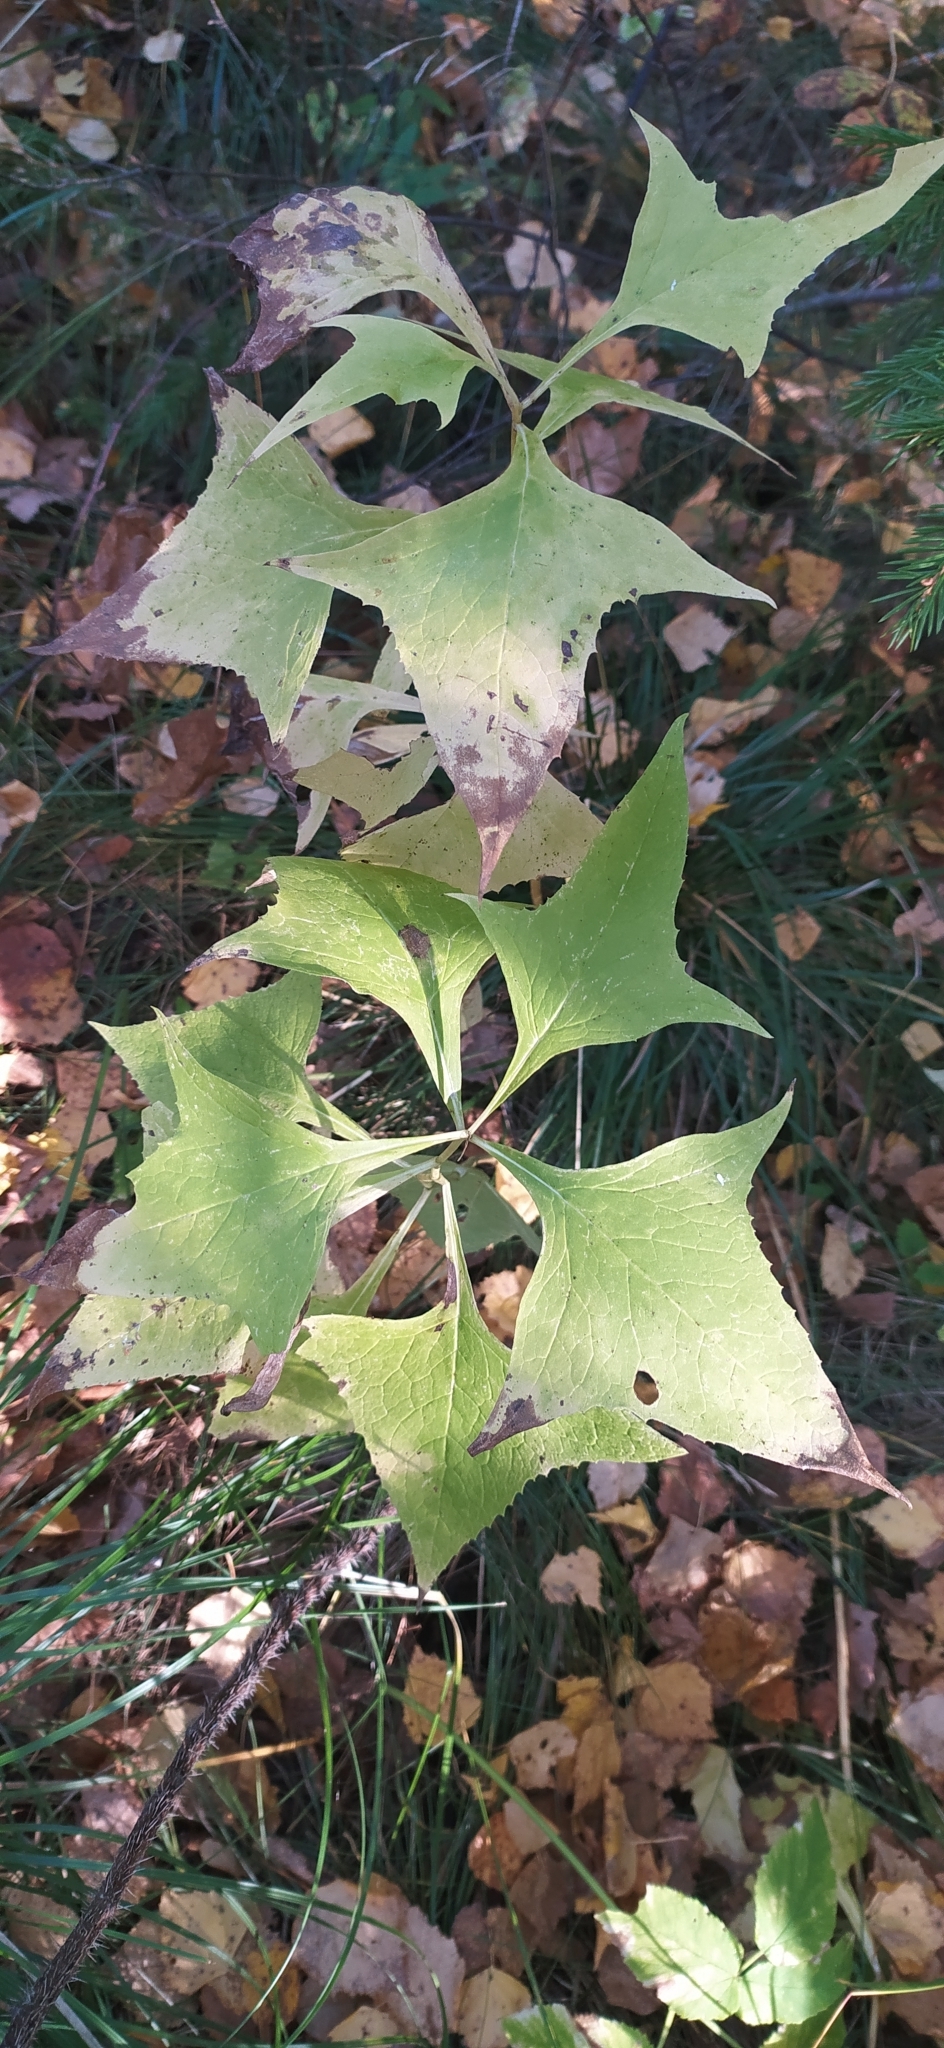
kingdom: Plantae
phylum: Tracheophyta
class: Magnoliopsida
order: Asterales
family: Asteraceae
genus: Parasenecio
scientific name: Parasenecio hastatus
